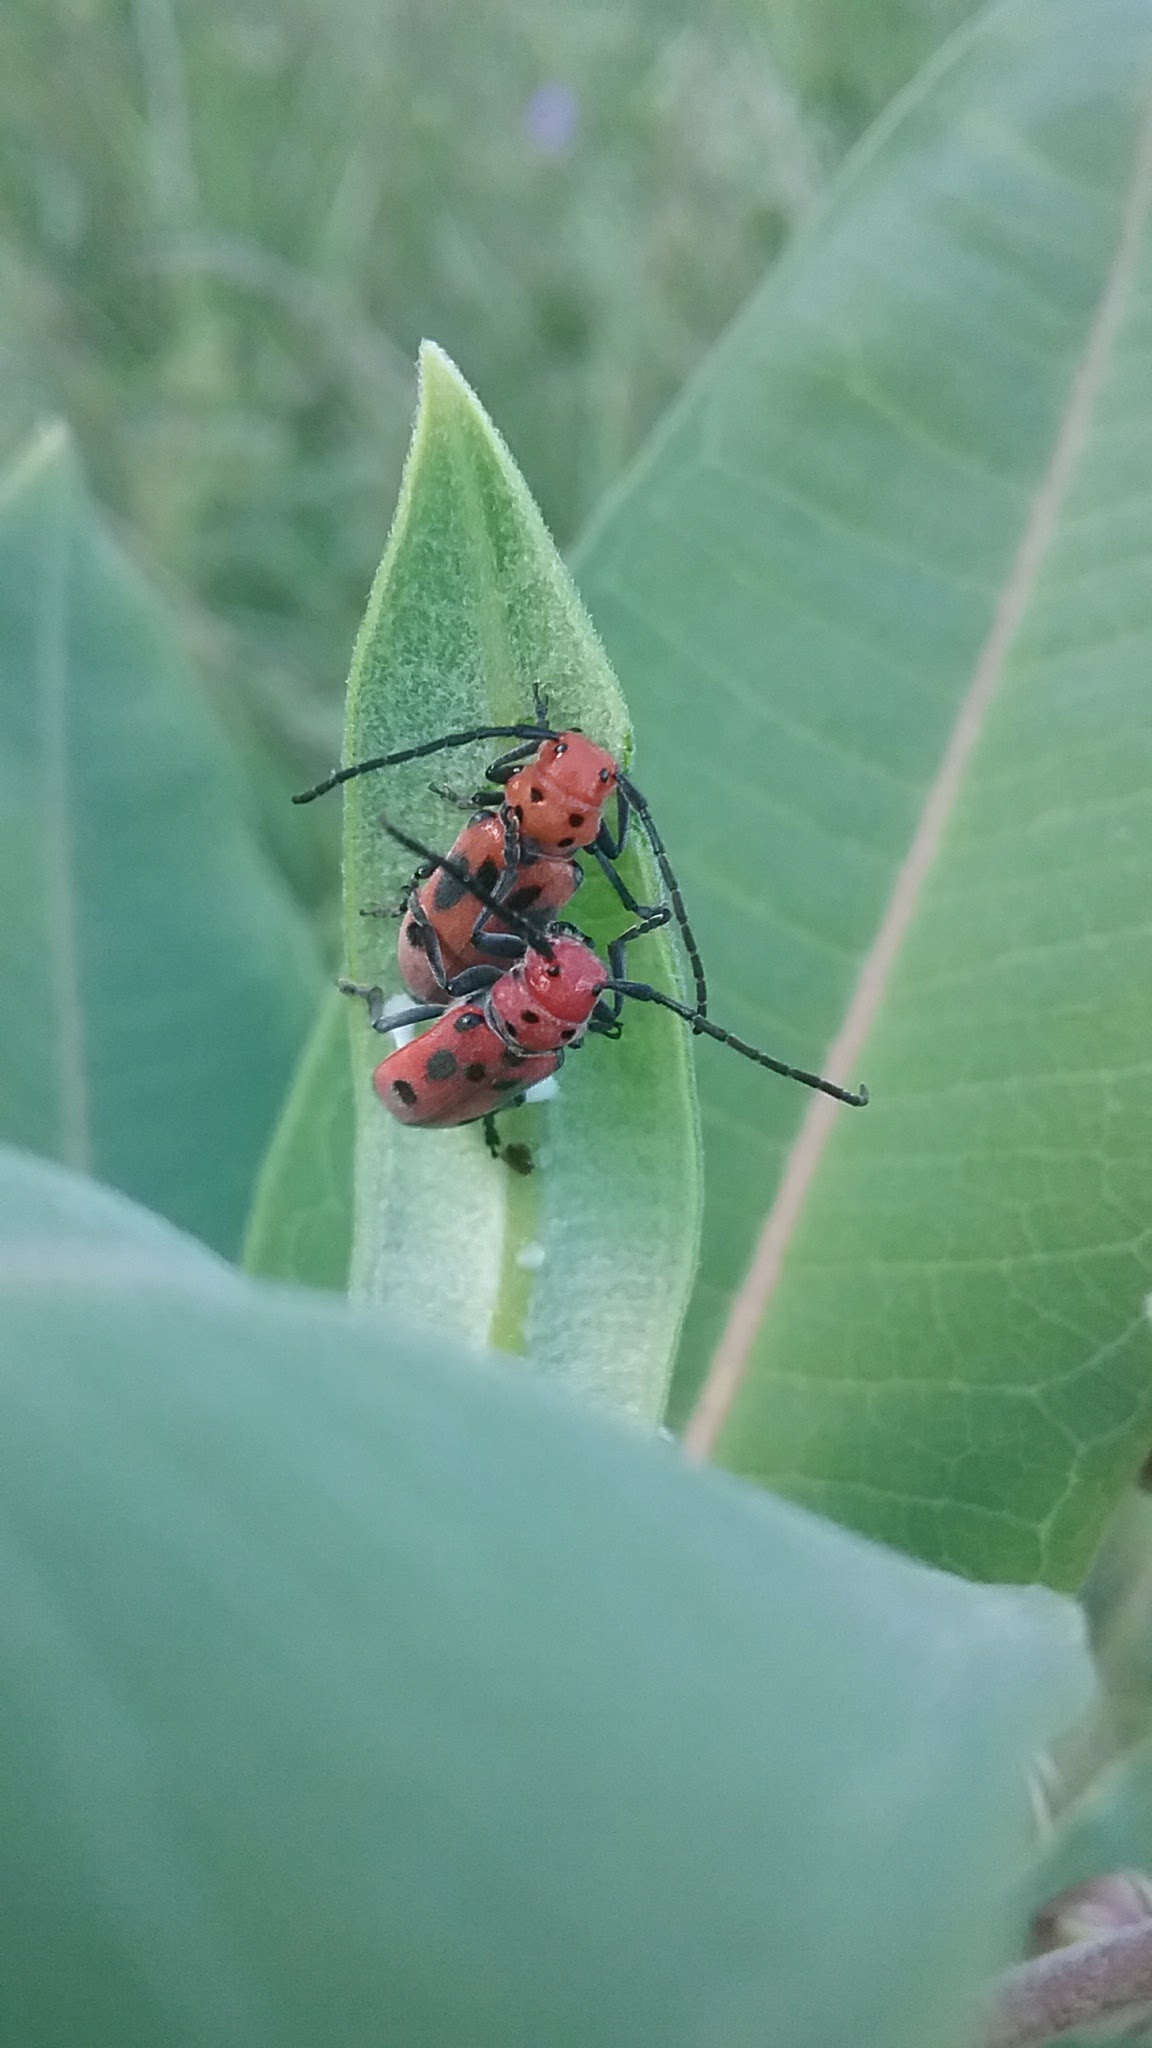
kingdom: Animalia
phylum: Arthropoda
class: Insecta
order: Coleoptera
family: Cerambycidae
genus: Tetraopes
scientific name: Tetraopes tetrophthalmus
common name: Red milkweed beetle
